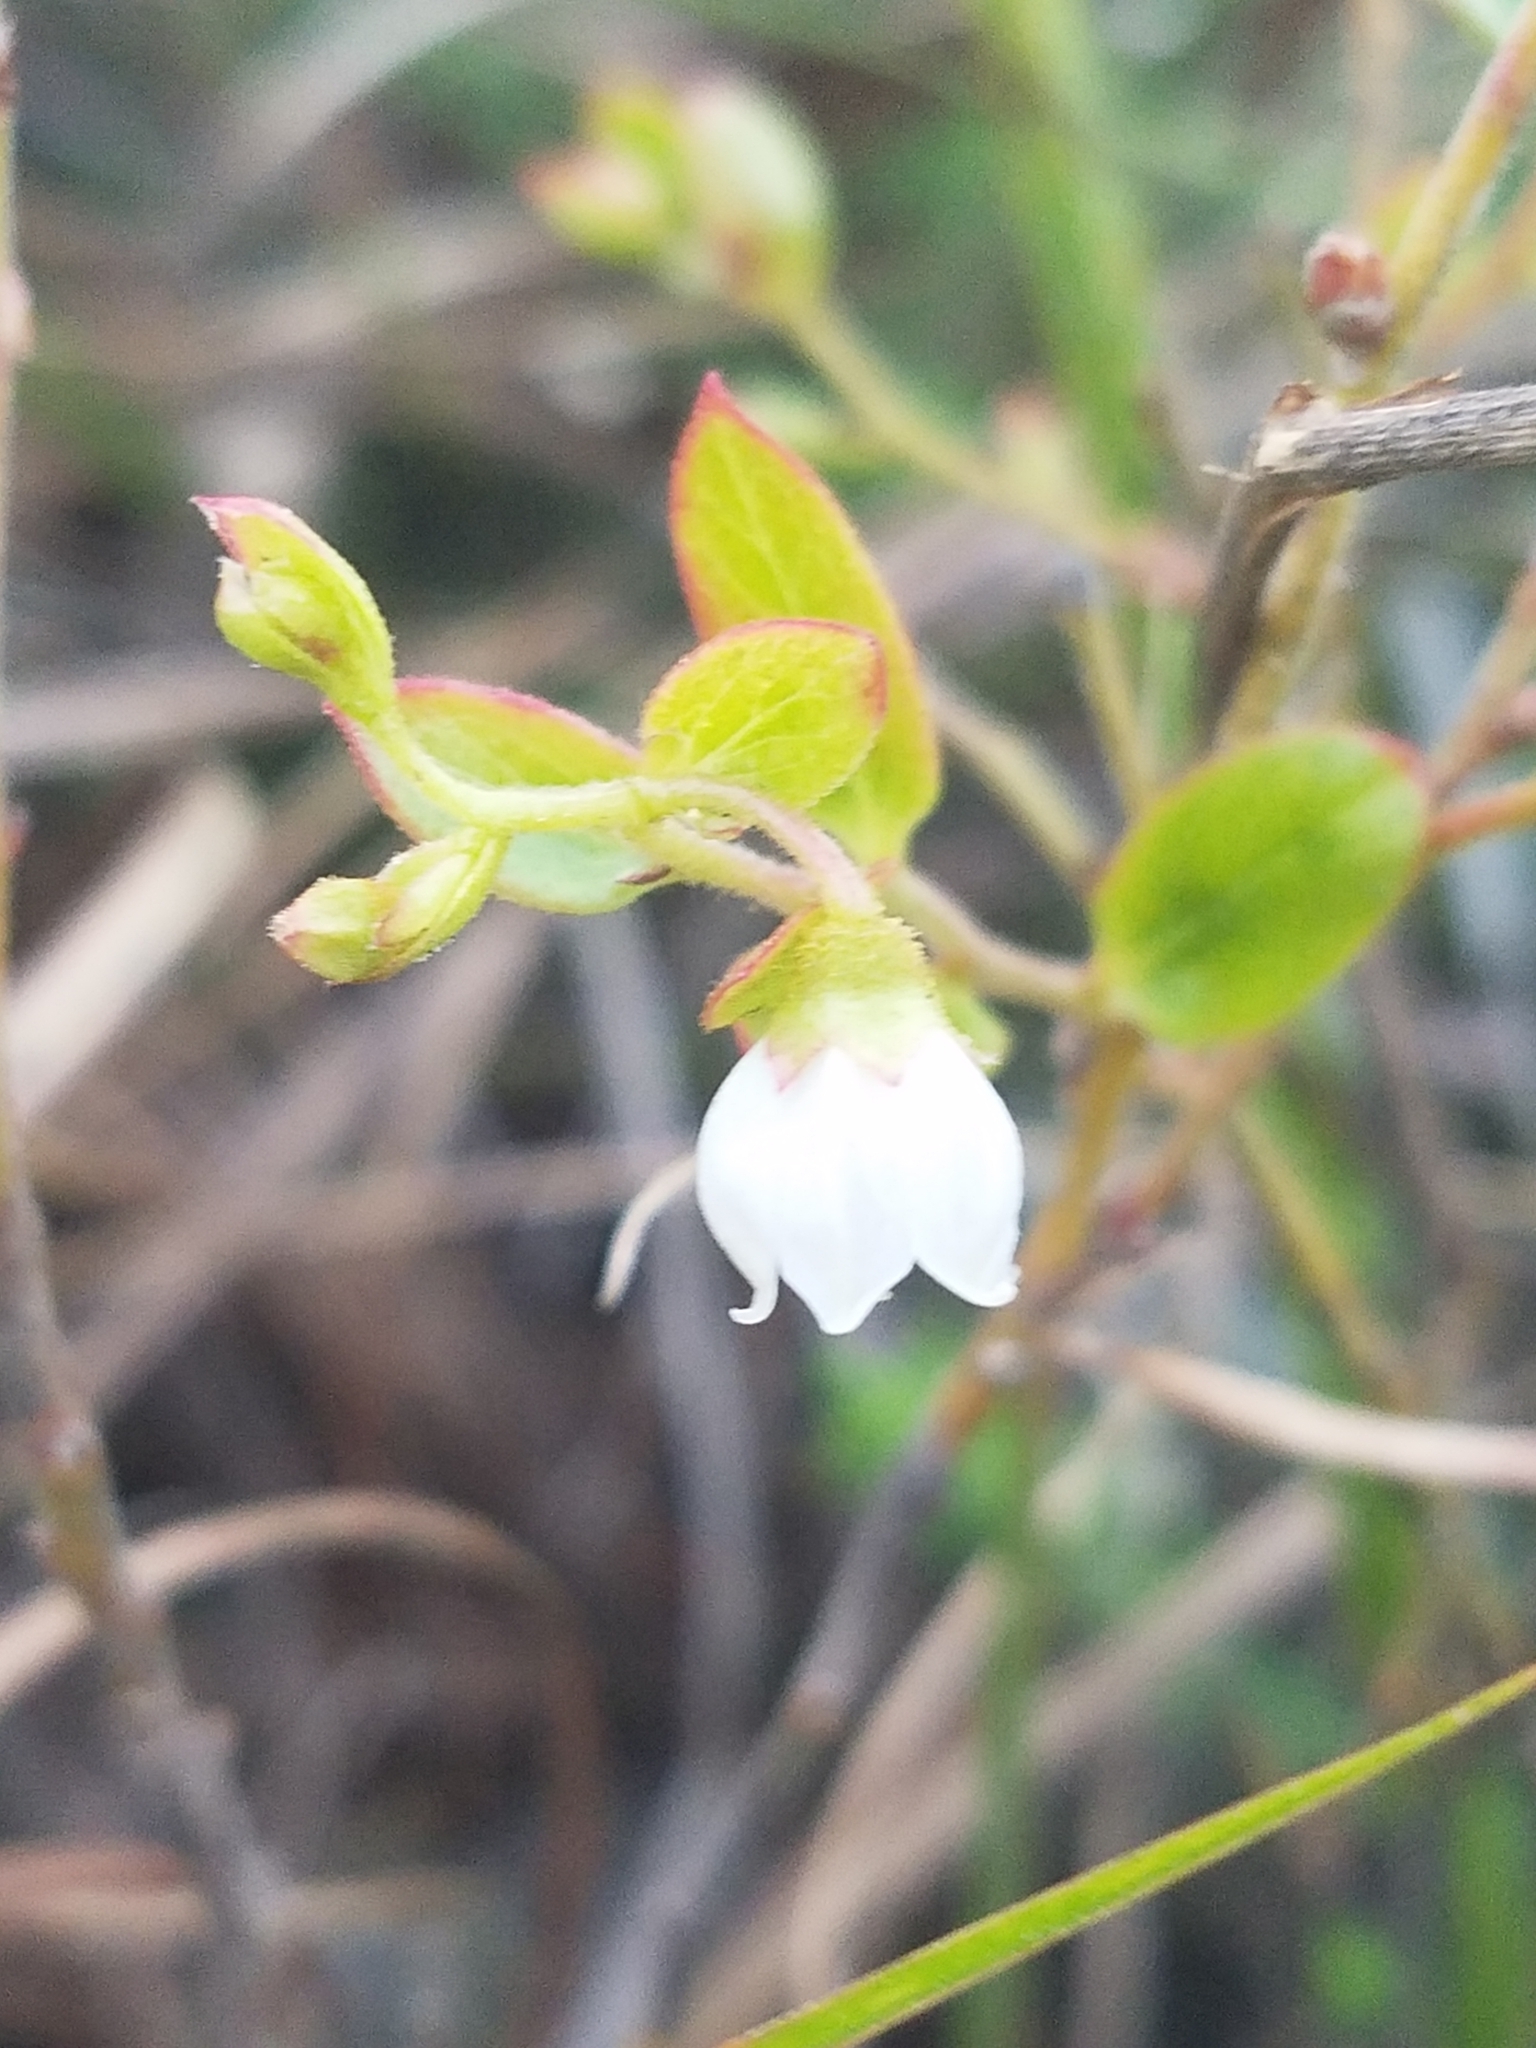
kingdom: Plantae
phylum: Tracheophyta
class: Magnoliopsida
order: Ericales
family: Ericaceae
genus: Gaylussacia
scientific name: Gaylussacia dumosa
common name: Dwarf huckleberry
